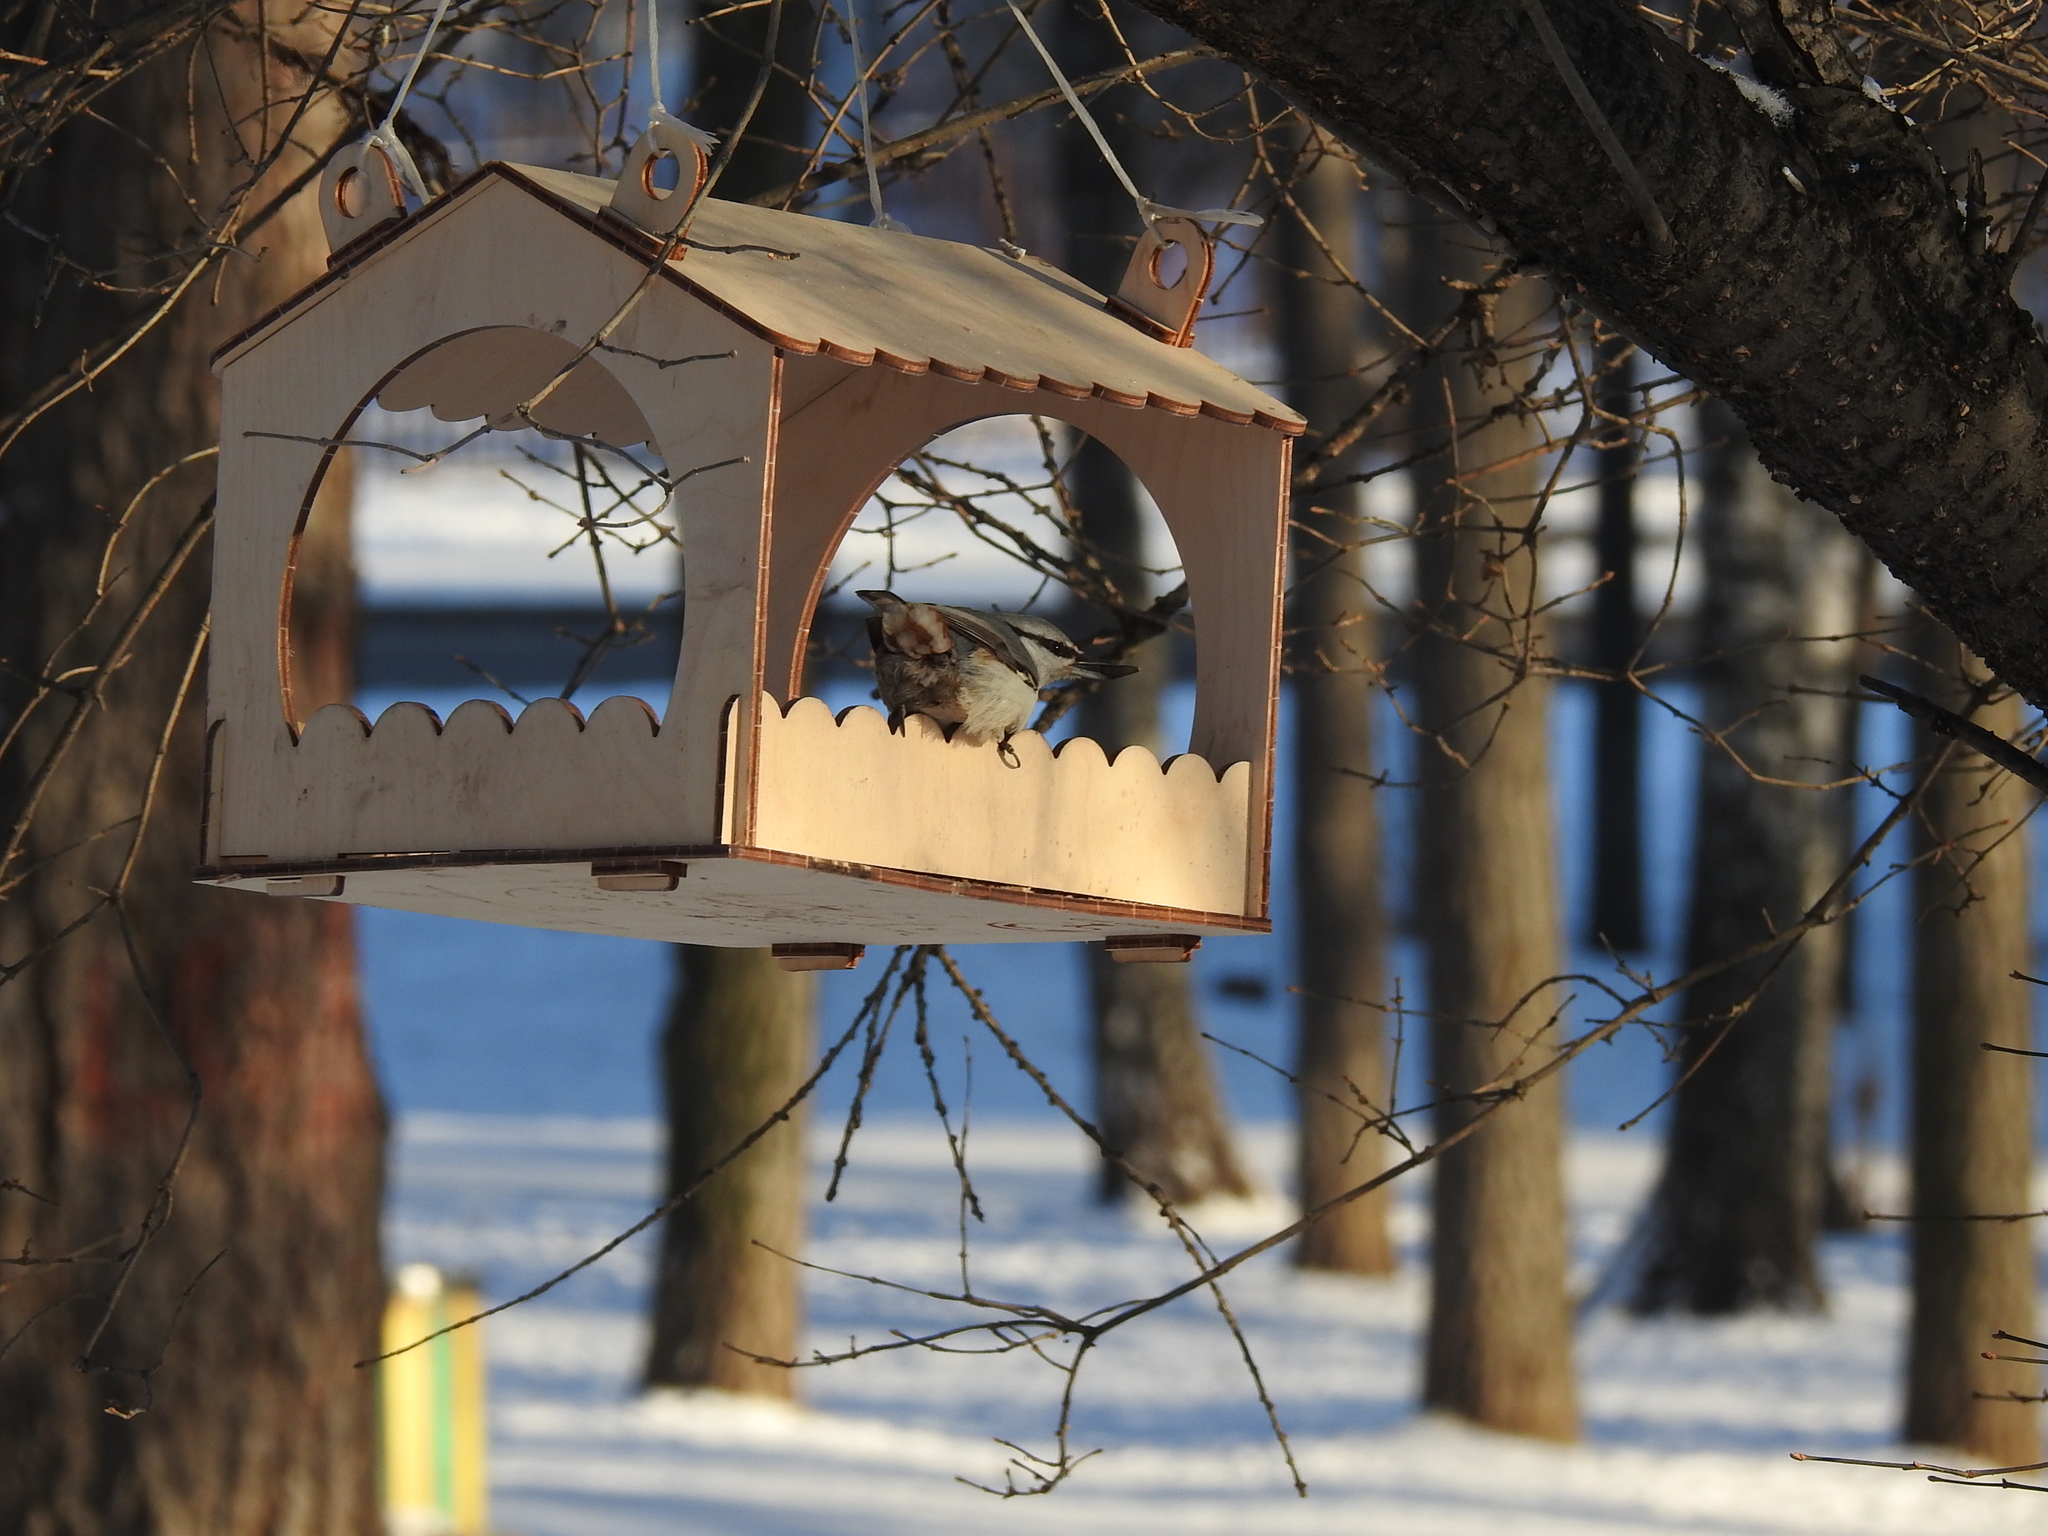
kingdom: Animalia
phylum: Chordata
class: Aves
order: Passeriformes
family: Sittidae
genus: Sitta
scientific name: Sitta europaea
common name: Eurasian nuthatch
